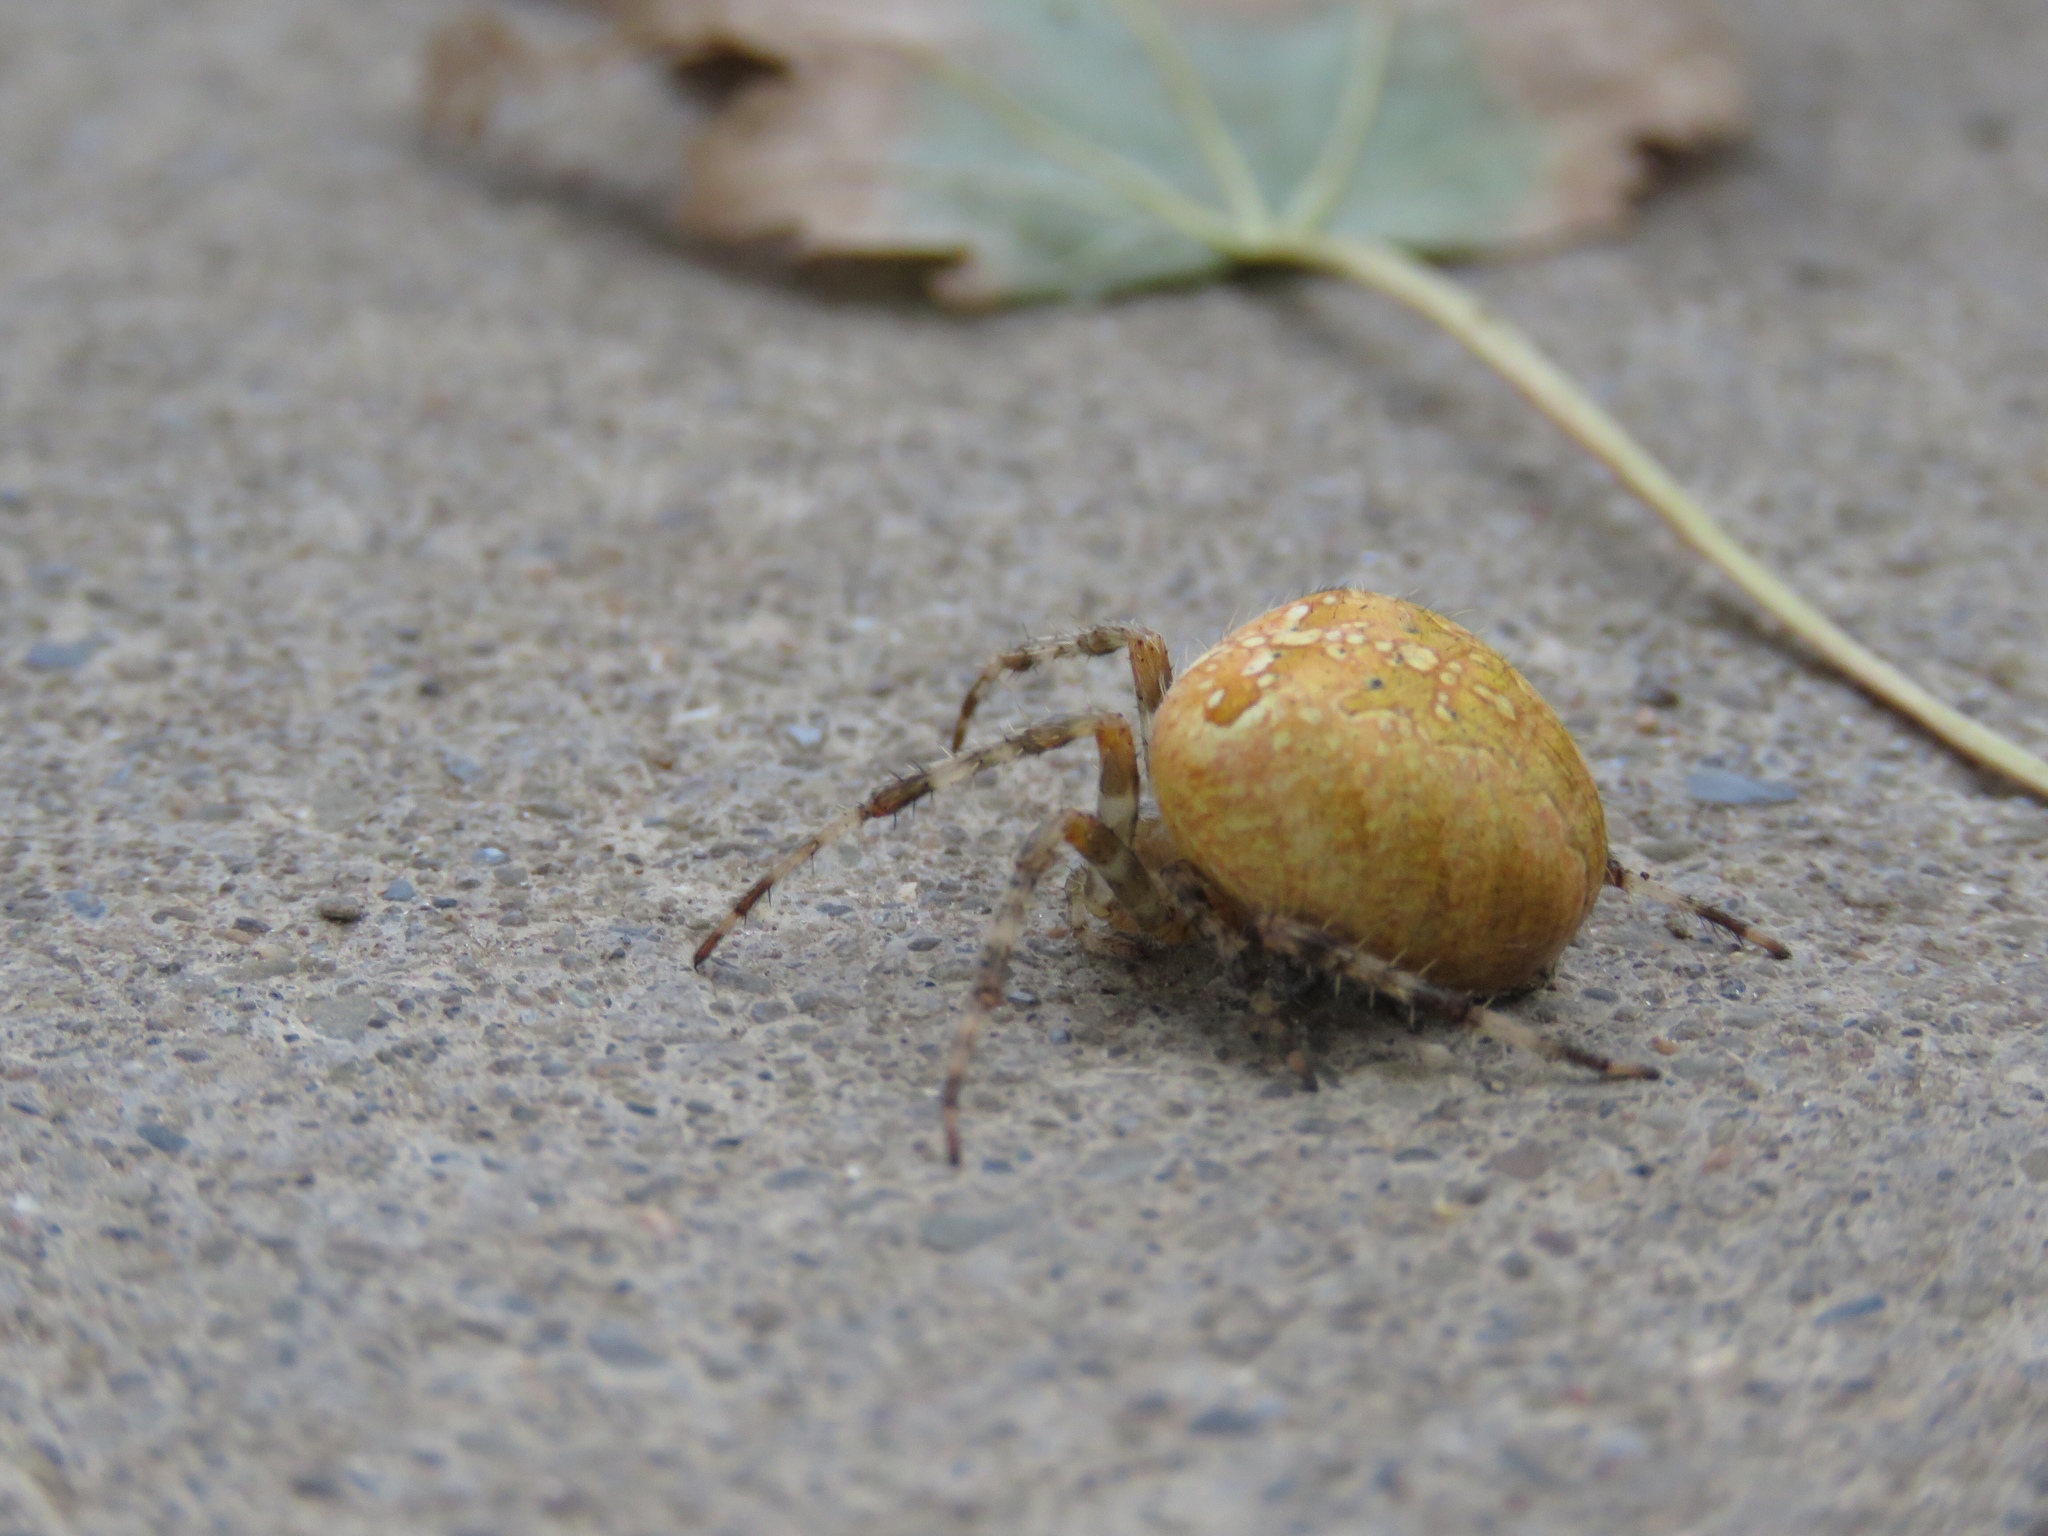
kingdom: Animalia
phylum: Arthropoda
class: Arachnida
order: Araneae
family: Araneidae
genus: Araneus
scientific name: Araneus diadematus
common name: Cross orbweaver
